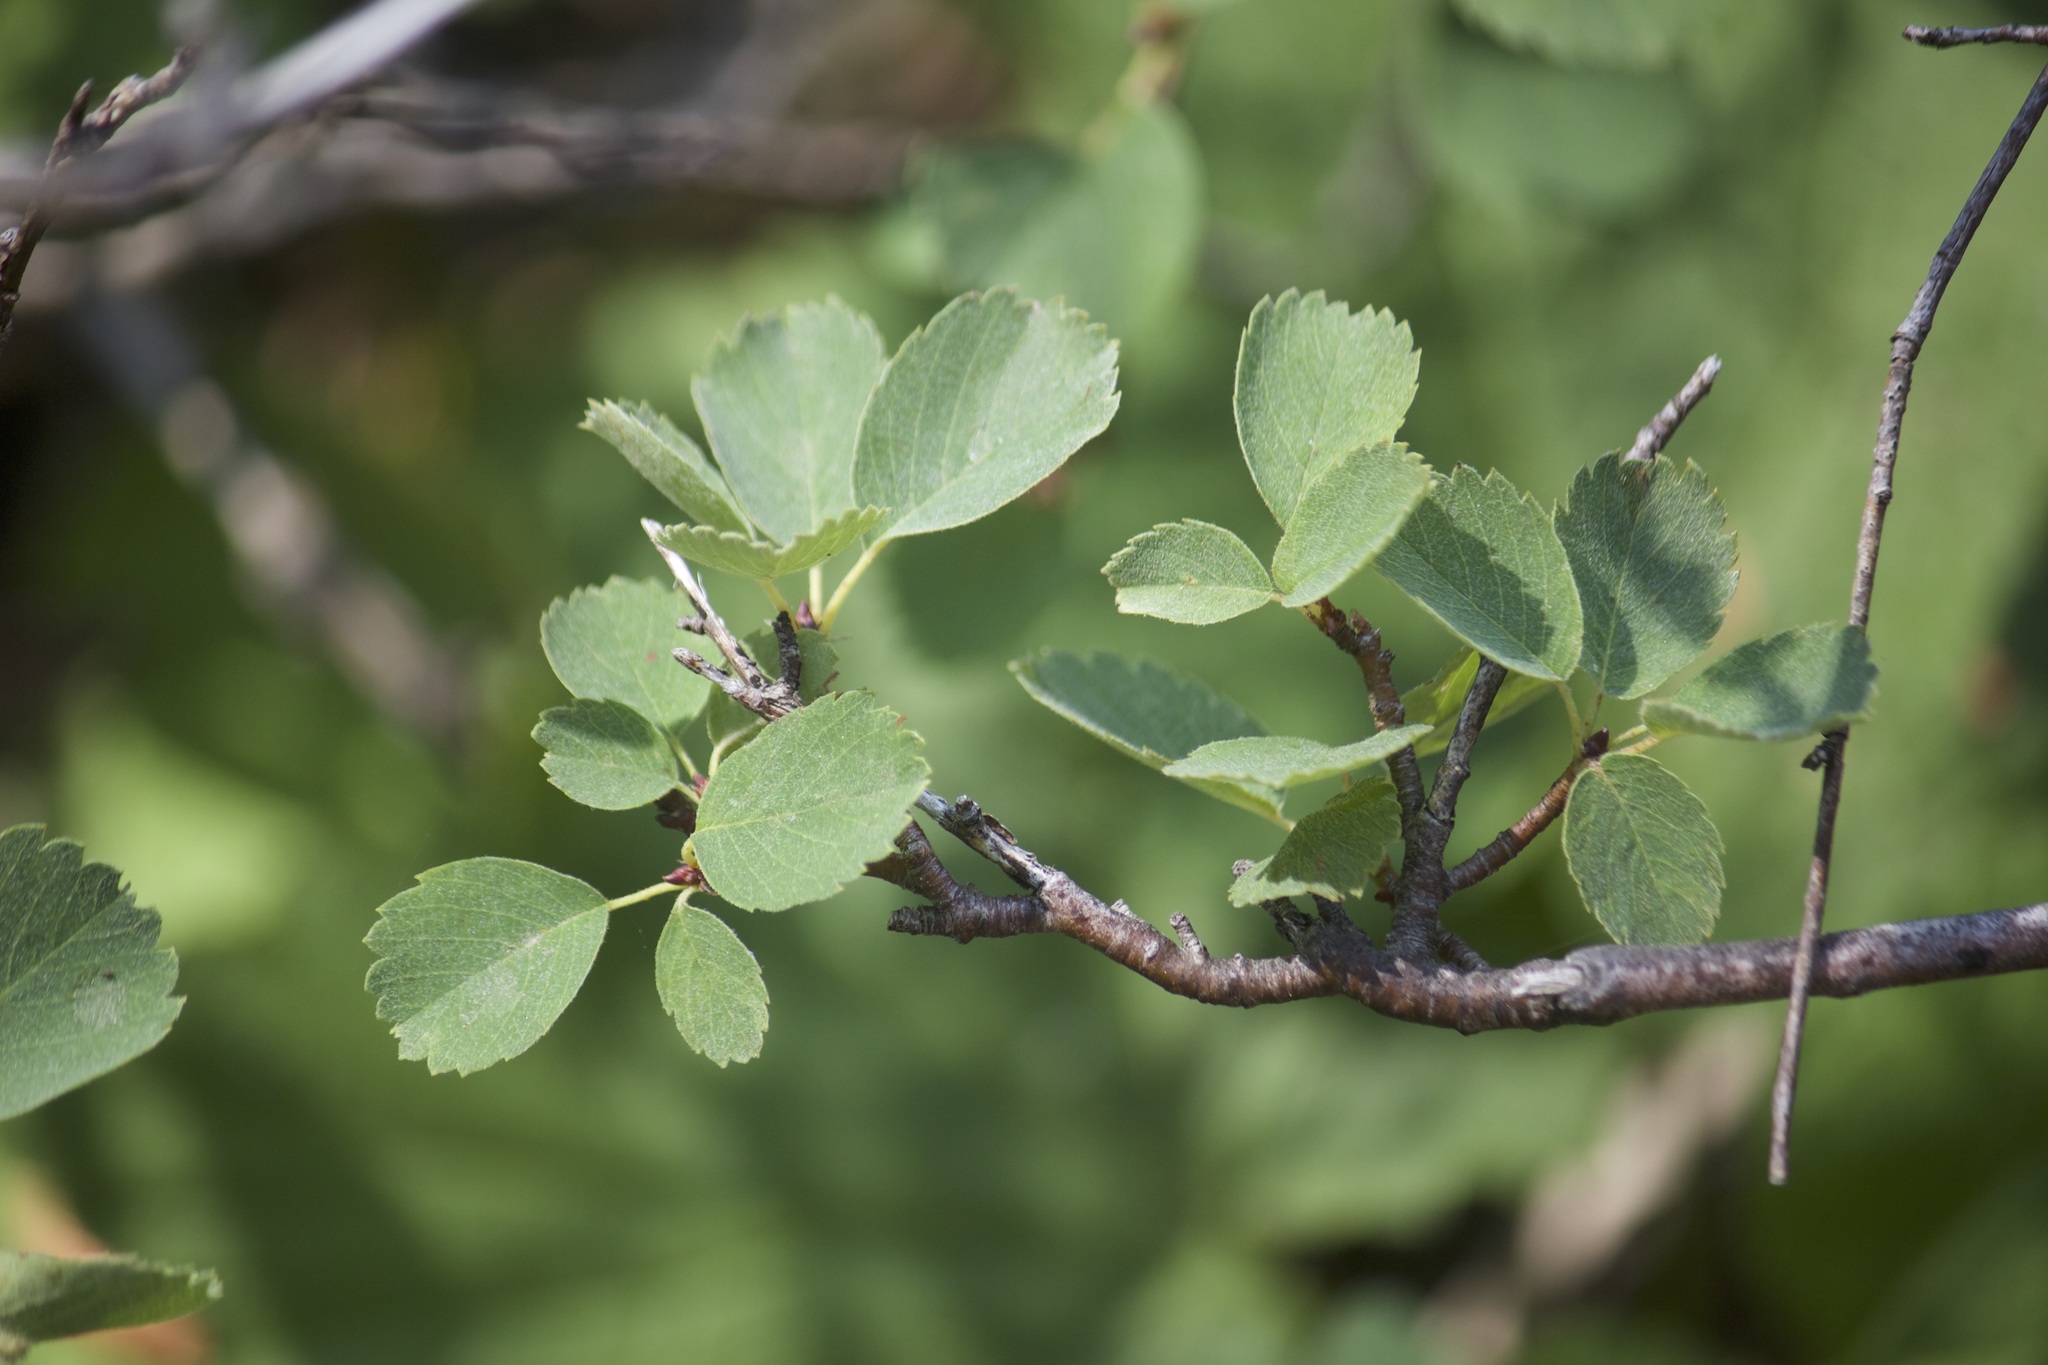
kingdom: Plantae
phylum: Tracheophyta
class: Magnoliopsida
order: Rosales
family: Rosaceae
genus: Amelanchier
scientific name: Amelanchier utahensis
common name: Utah serviceberry
